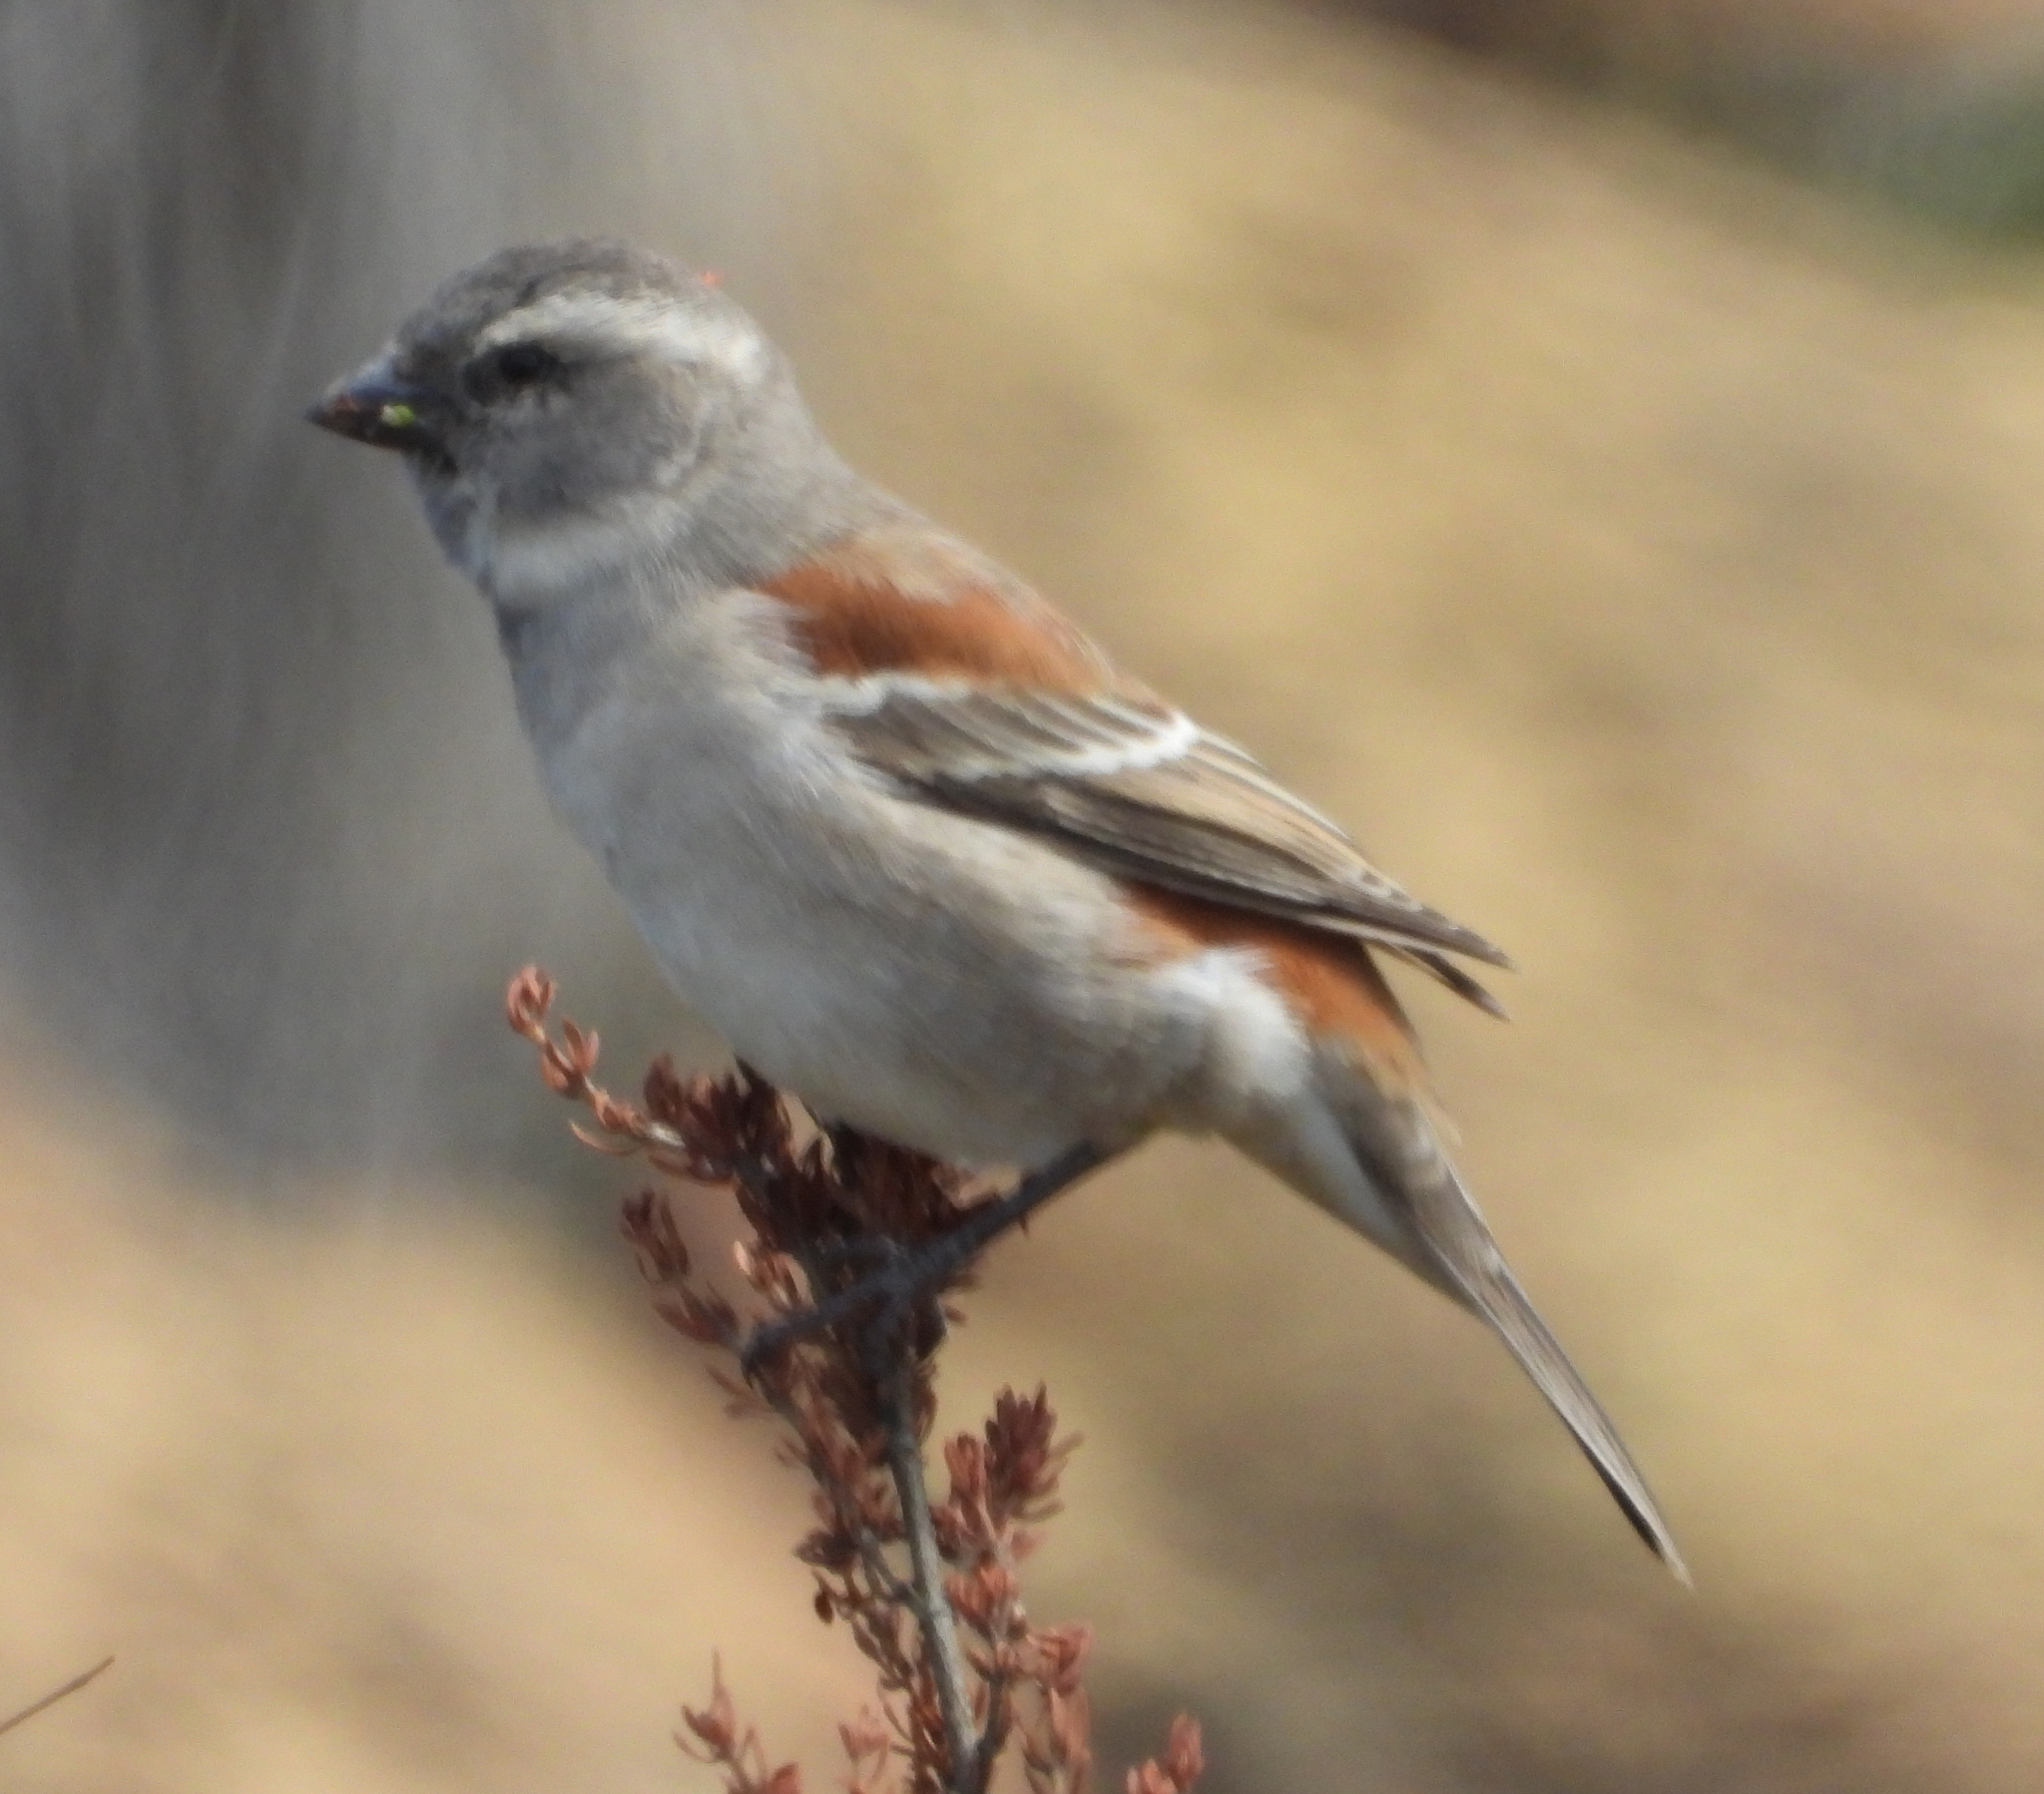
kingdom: Animalia
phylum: Chordata
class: Aves
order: Passeriformes
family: Passeridae
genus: Passer
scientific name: Passer melanurus
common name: Cape sparrow
